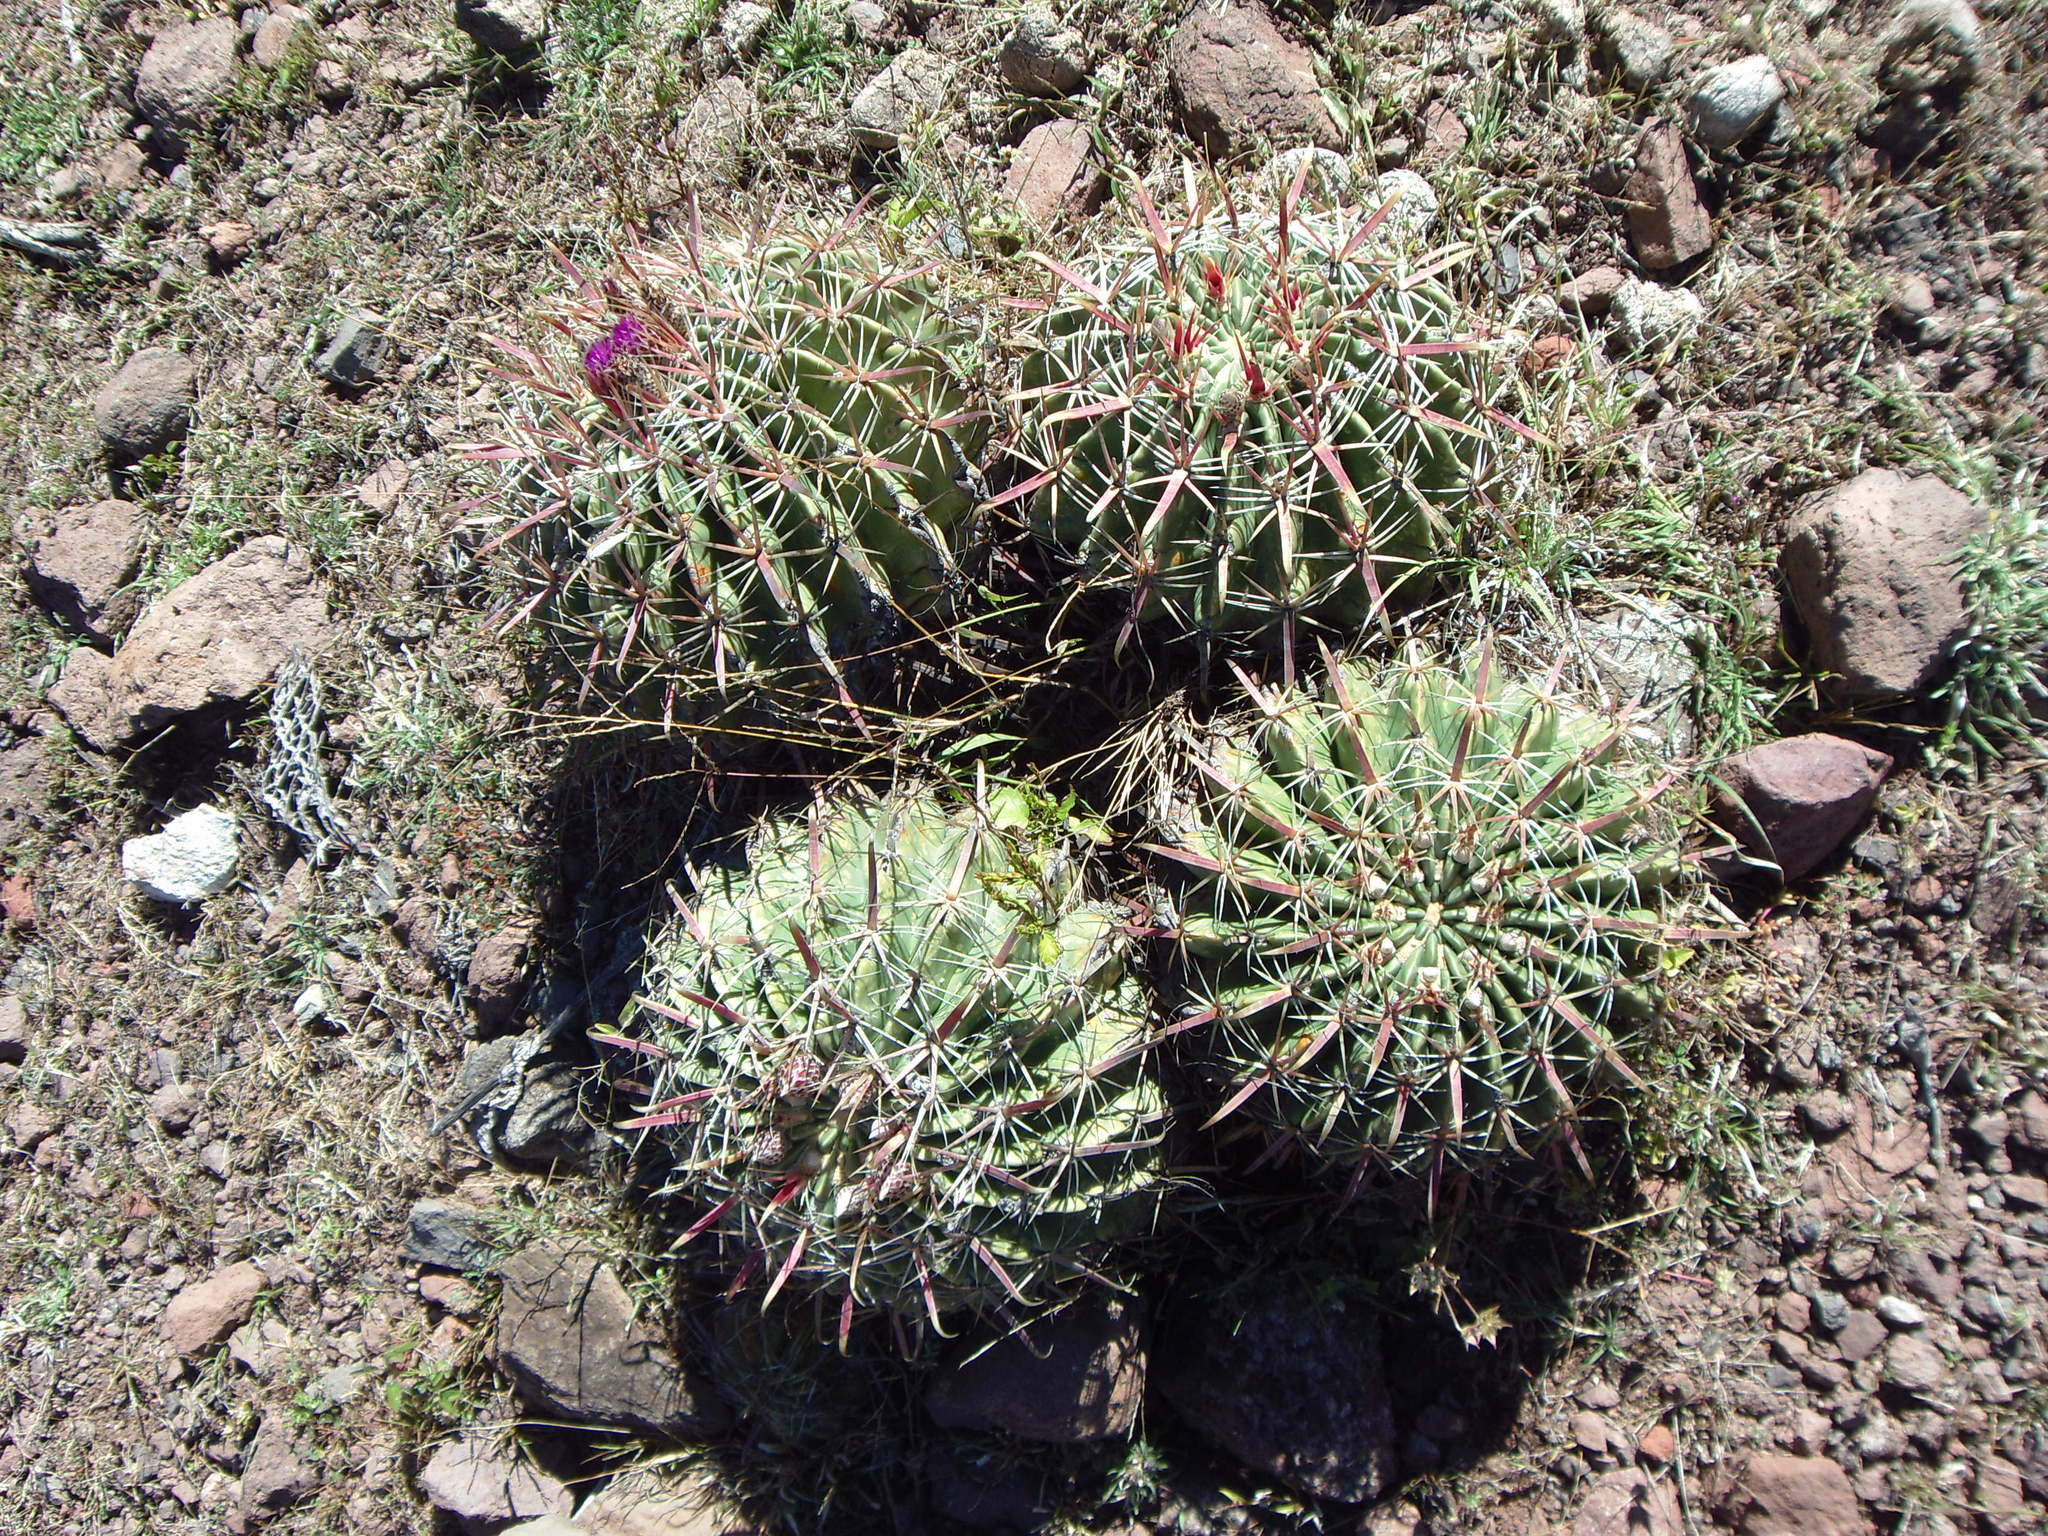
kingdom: Plantae
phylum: Tracheophyta
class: Magnoliopsida
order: Caryophyllales
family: Cactaceae
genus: Ferocactus
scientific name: Ferocactus latispinus
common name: Devil's-tongue cactus
